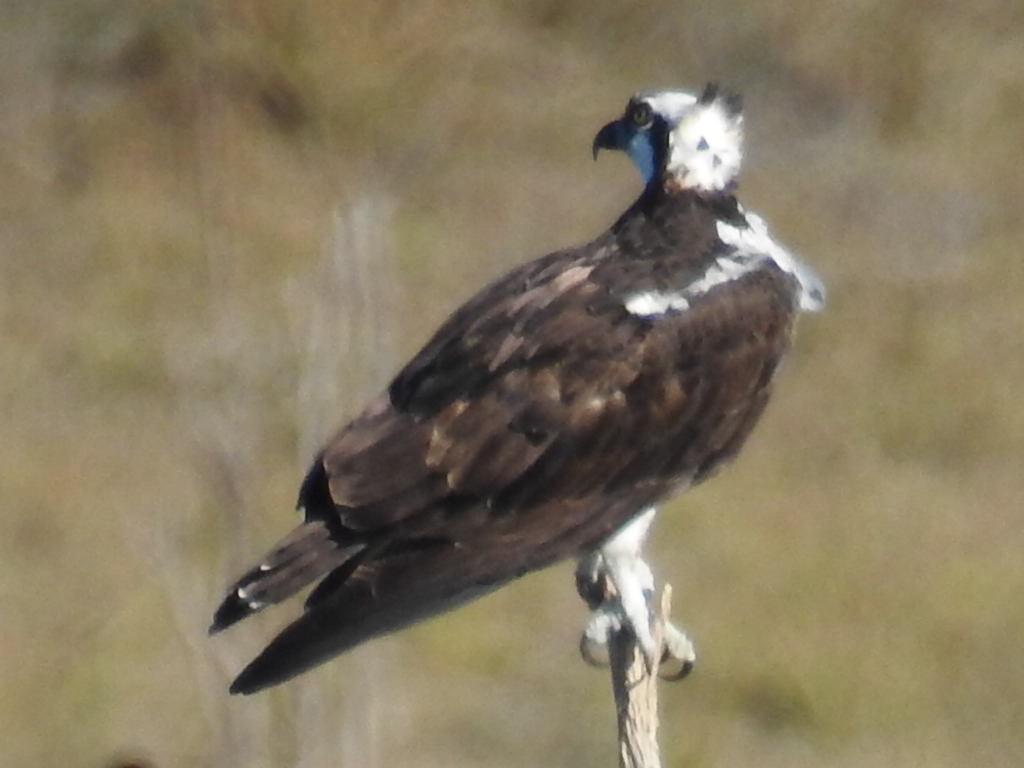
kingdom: Animalia
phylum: Chordata
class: Aves
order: Accipitriformes
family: Pandionidae
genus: Pandion
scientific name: Pandion haliaetus
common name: Osprey
